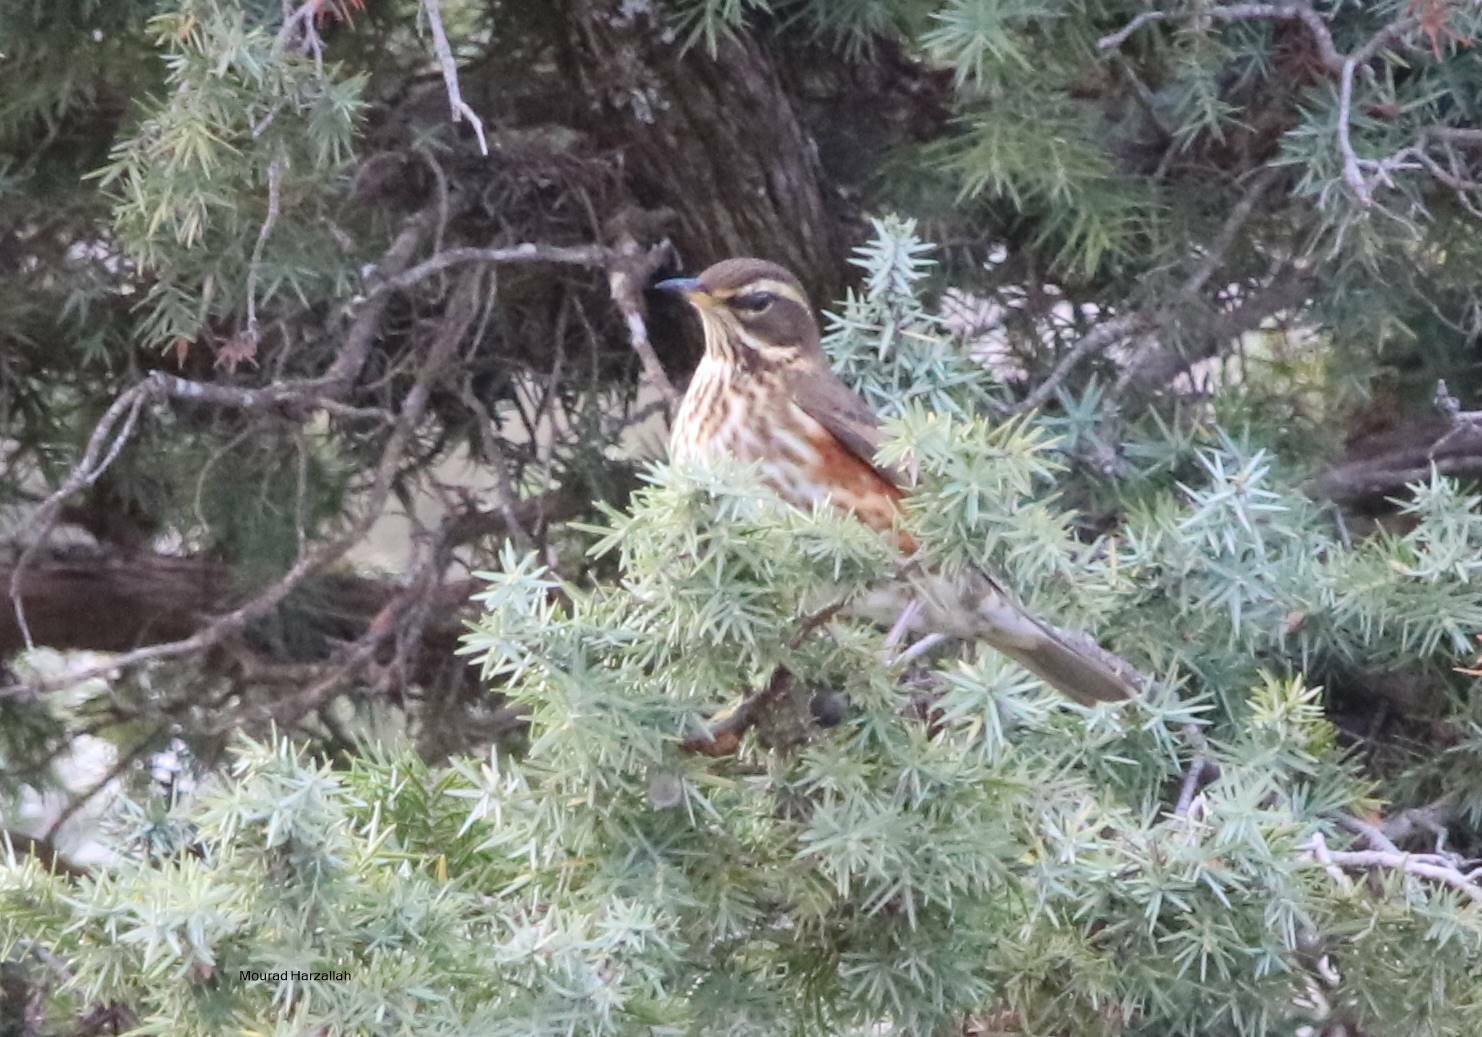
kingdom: Animalia
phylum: Chordata
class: Aves
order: Passeriformes
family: Turdidae
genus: Turdus
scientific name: Turdus iliacus
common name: Redwing
